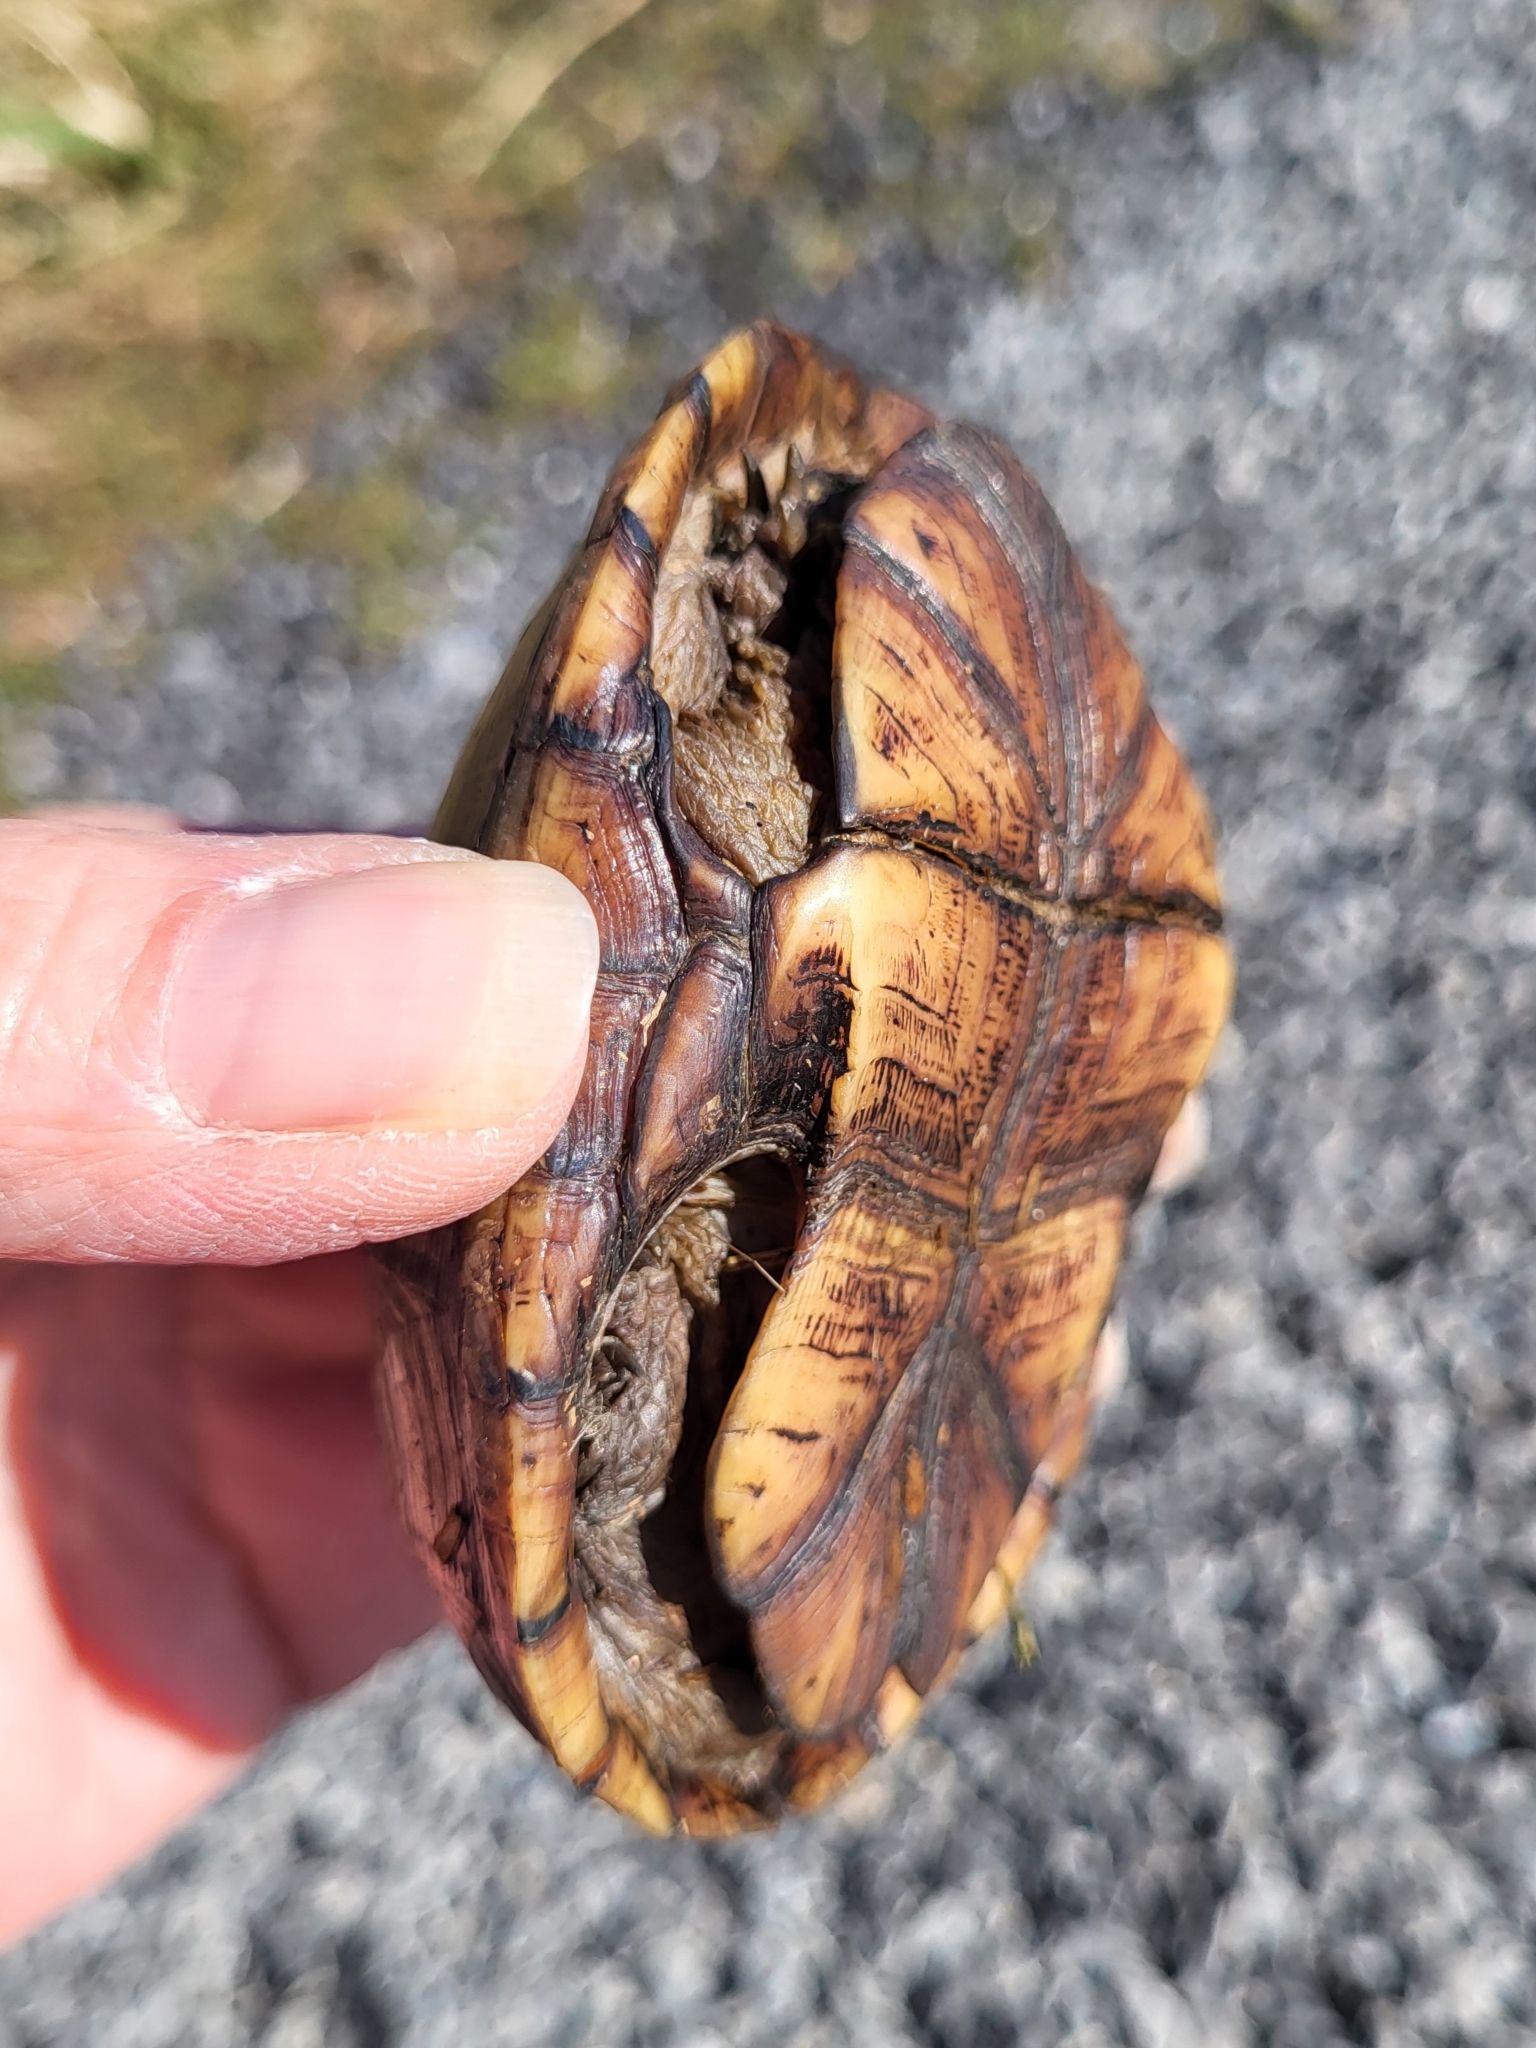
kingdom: Animalia
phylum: Chordata
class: Testudines
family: Kinosternidae
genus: Kinosternon
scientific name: Kinosternon subrubrum
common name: Eastern mud turtle
